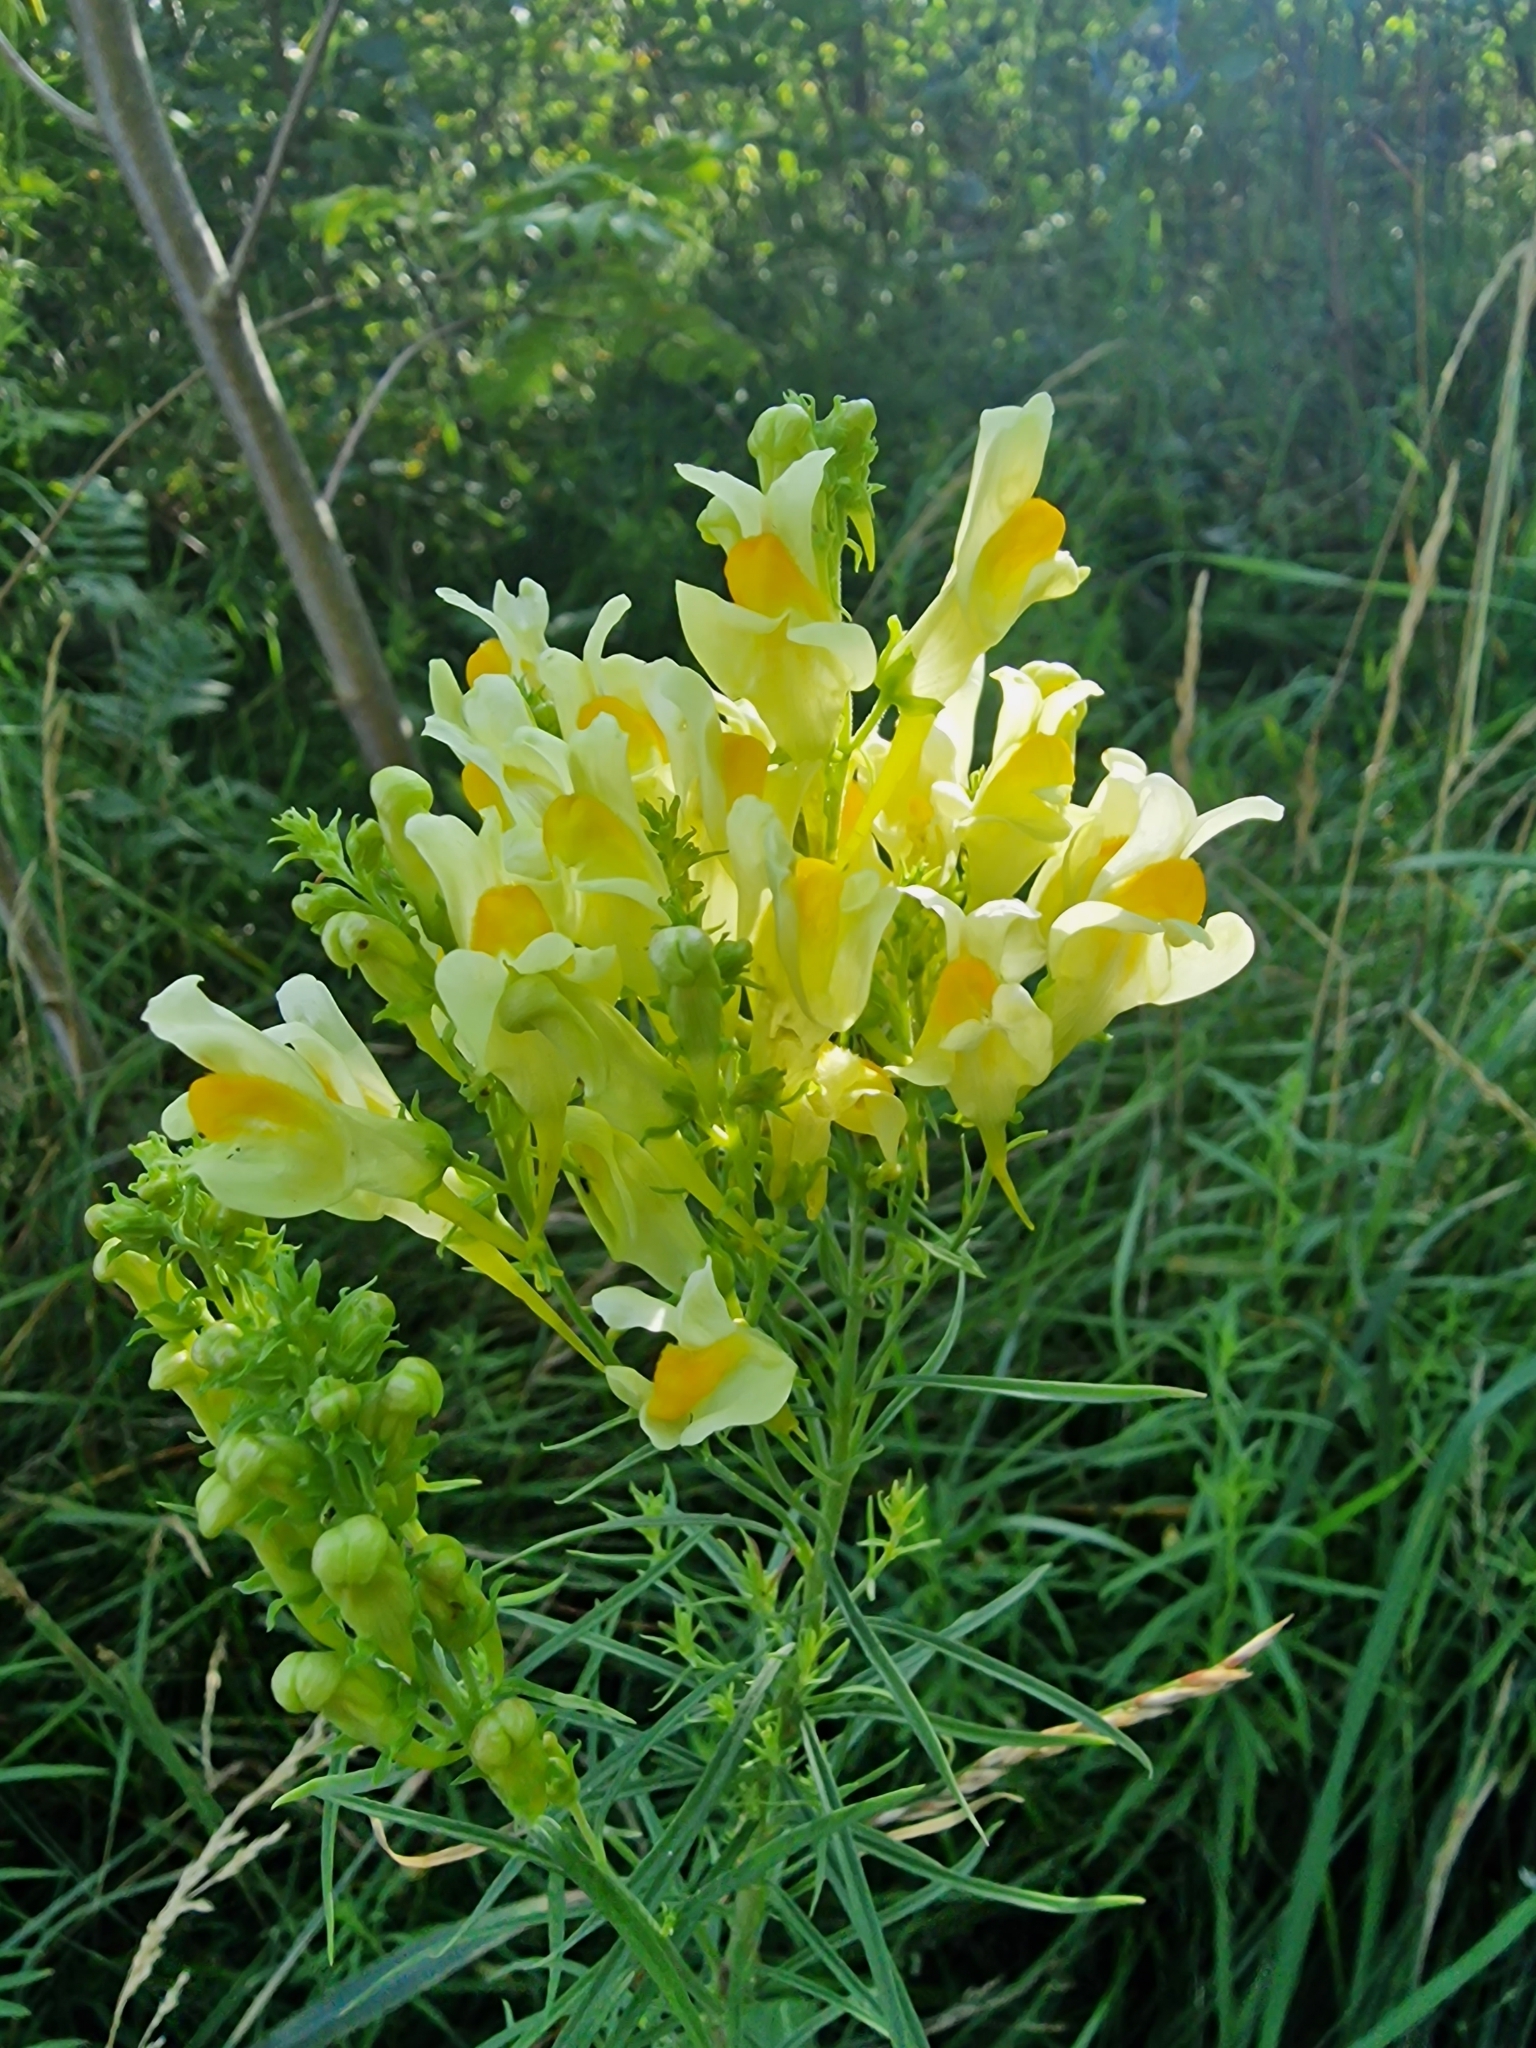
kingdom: Plantae
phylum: Tracheophyta
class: Magnoliopsida
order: Lamiales
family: Plantaginaceae
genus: Linaria
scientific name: Linaria vulgaris
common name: Butter and eggs
